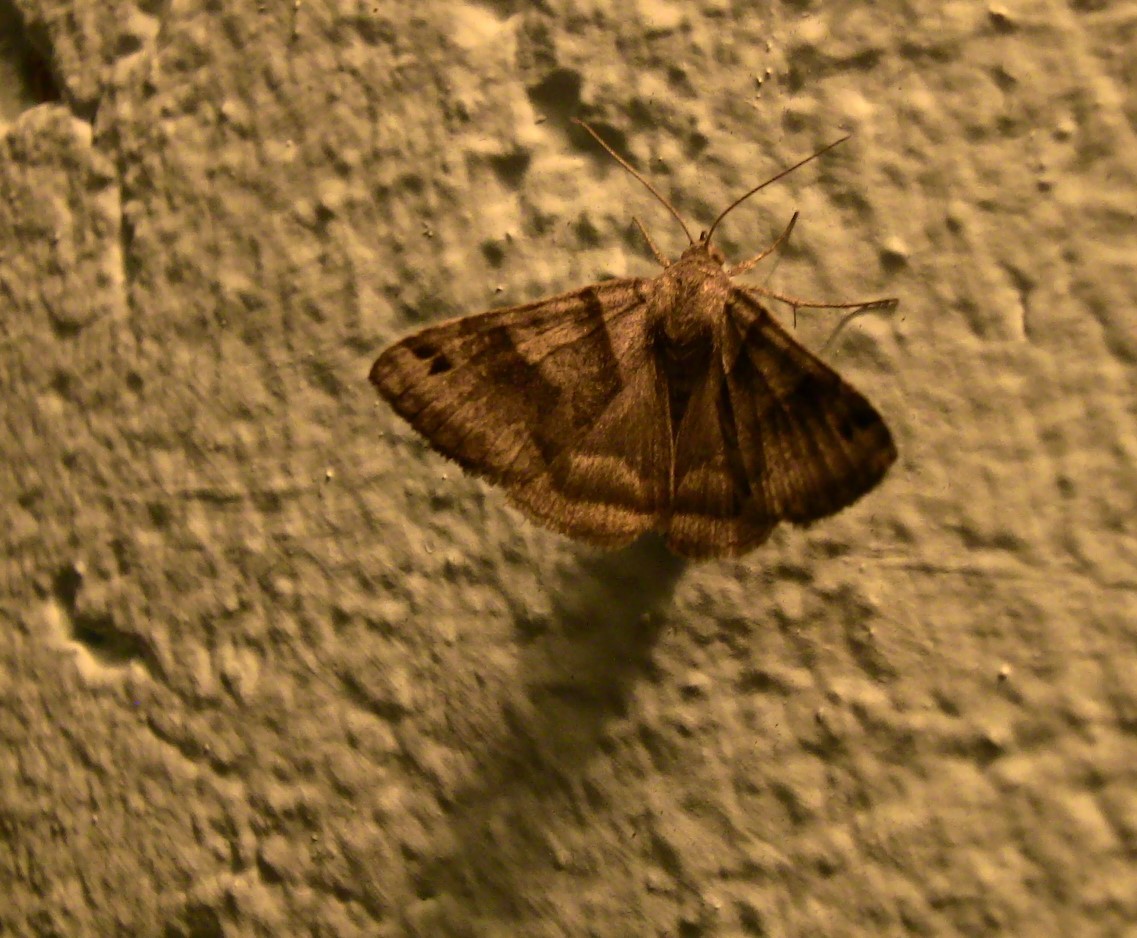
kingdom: Animalia
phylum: Arthropoda
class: Insecta
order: Lepidoptera
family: Erebidae
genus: Caenurgina
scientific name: Caenurgina erechtea
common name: Forage looper moth
